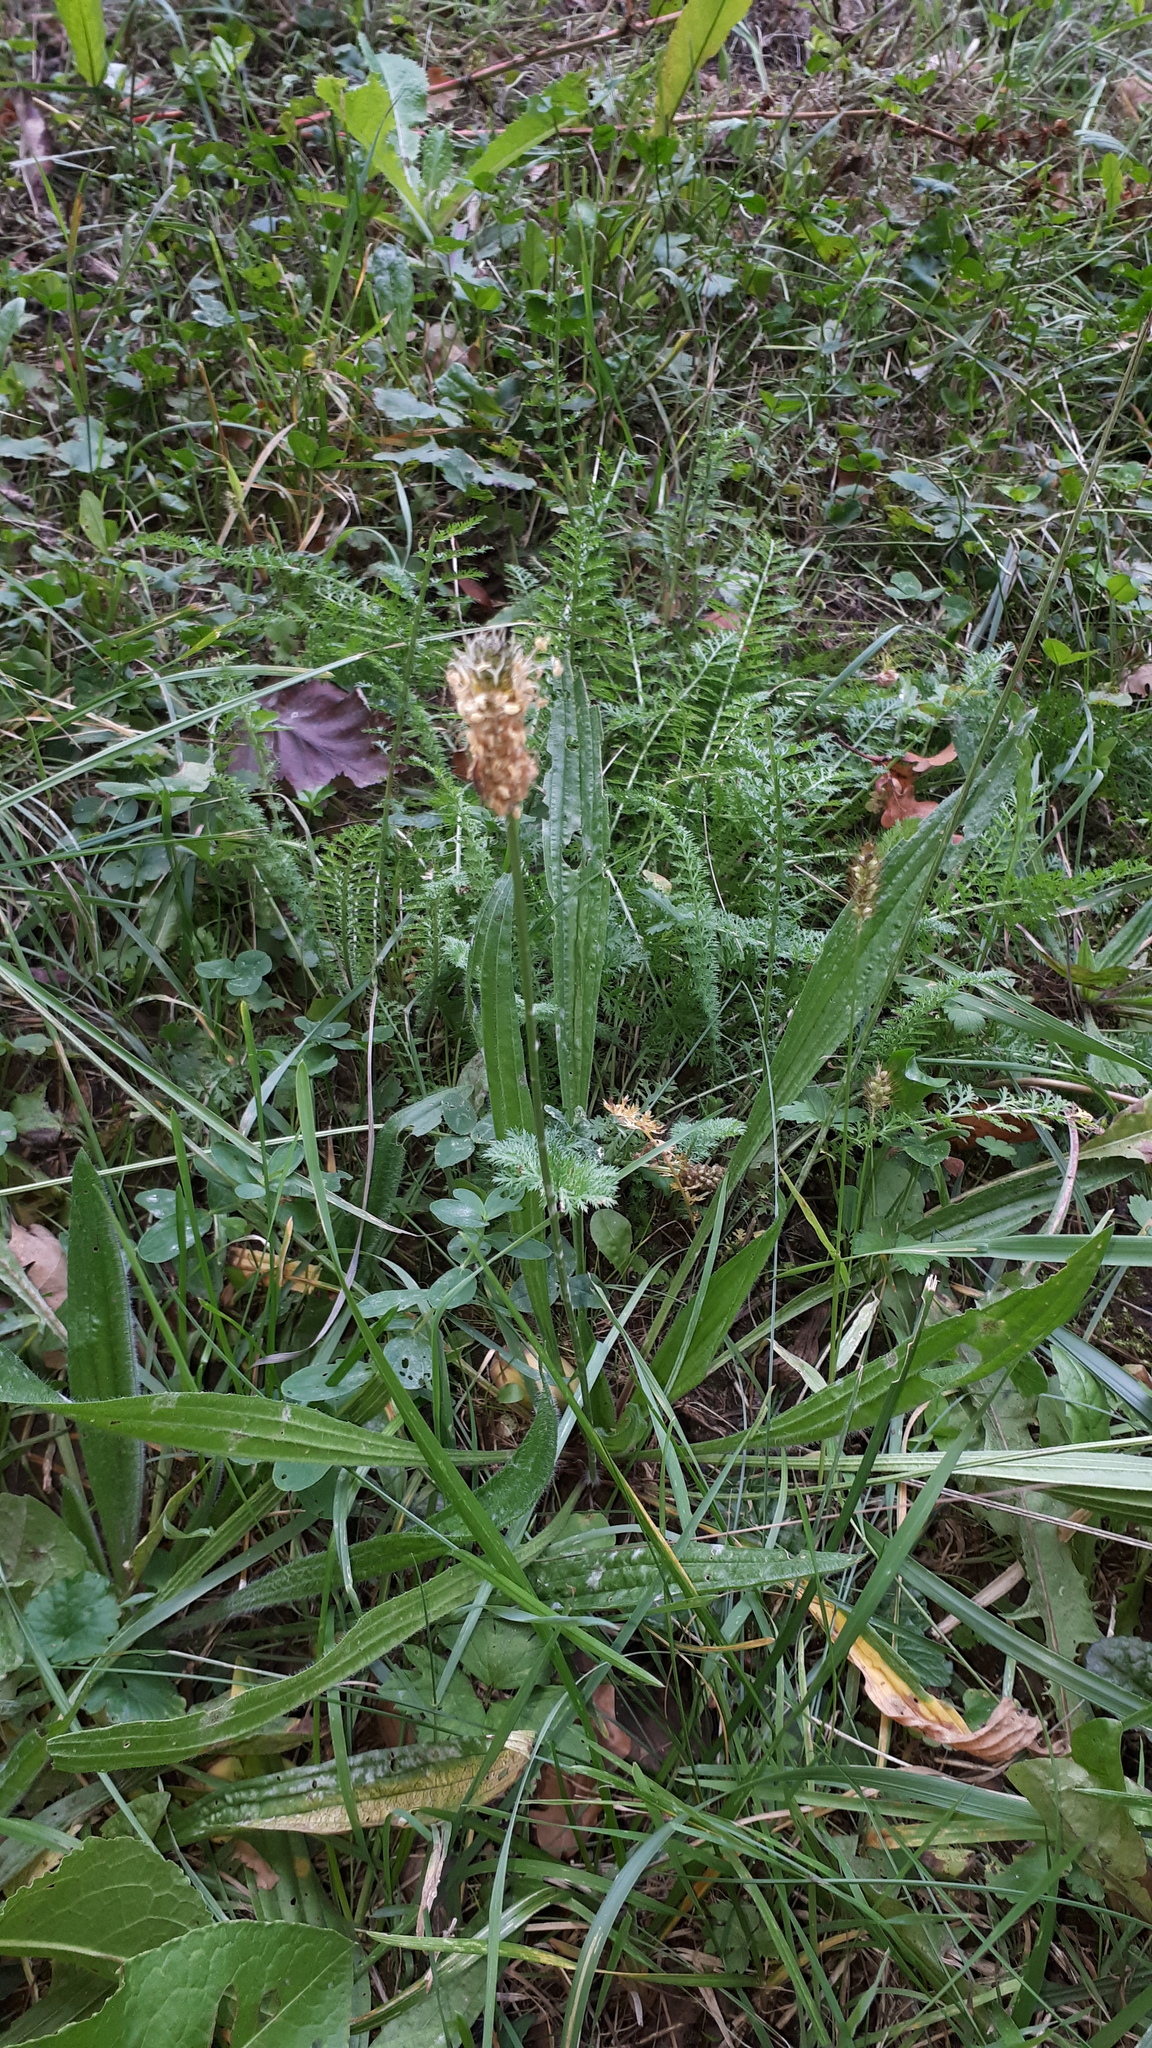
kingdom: Plantae
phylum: Tracheophyta
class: Magnoliopsida
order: Lamiales
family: Plantaginaceae
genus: Plantago
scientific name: Plantago lanceolata
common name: Ribwort plantain
